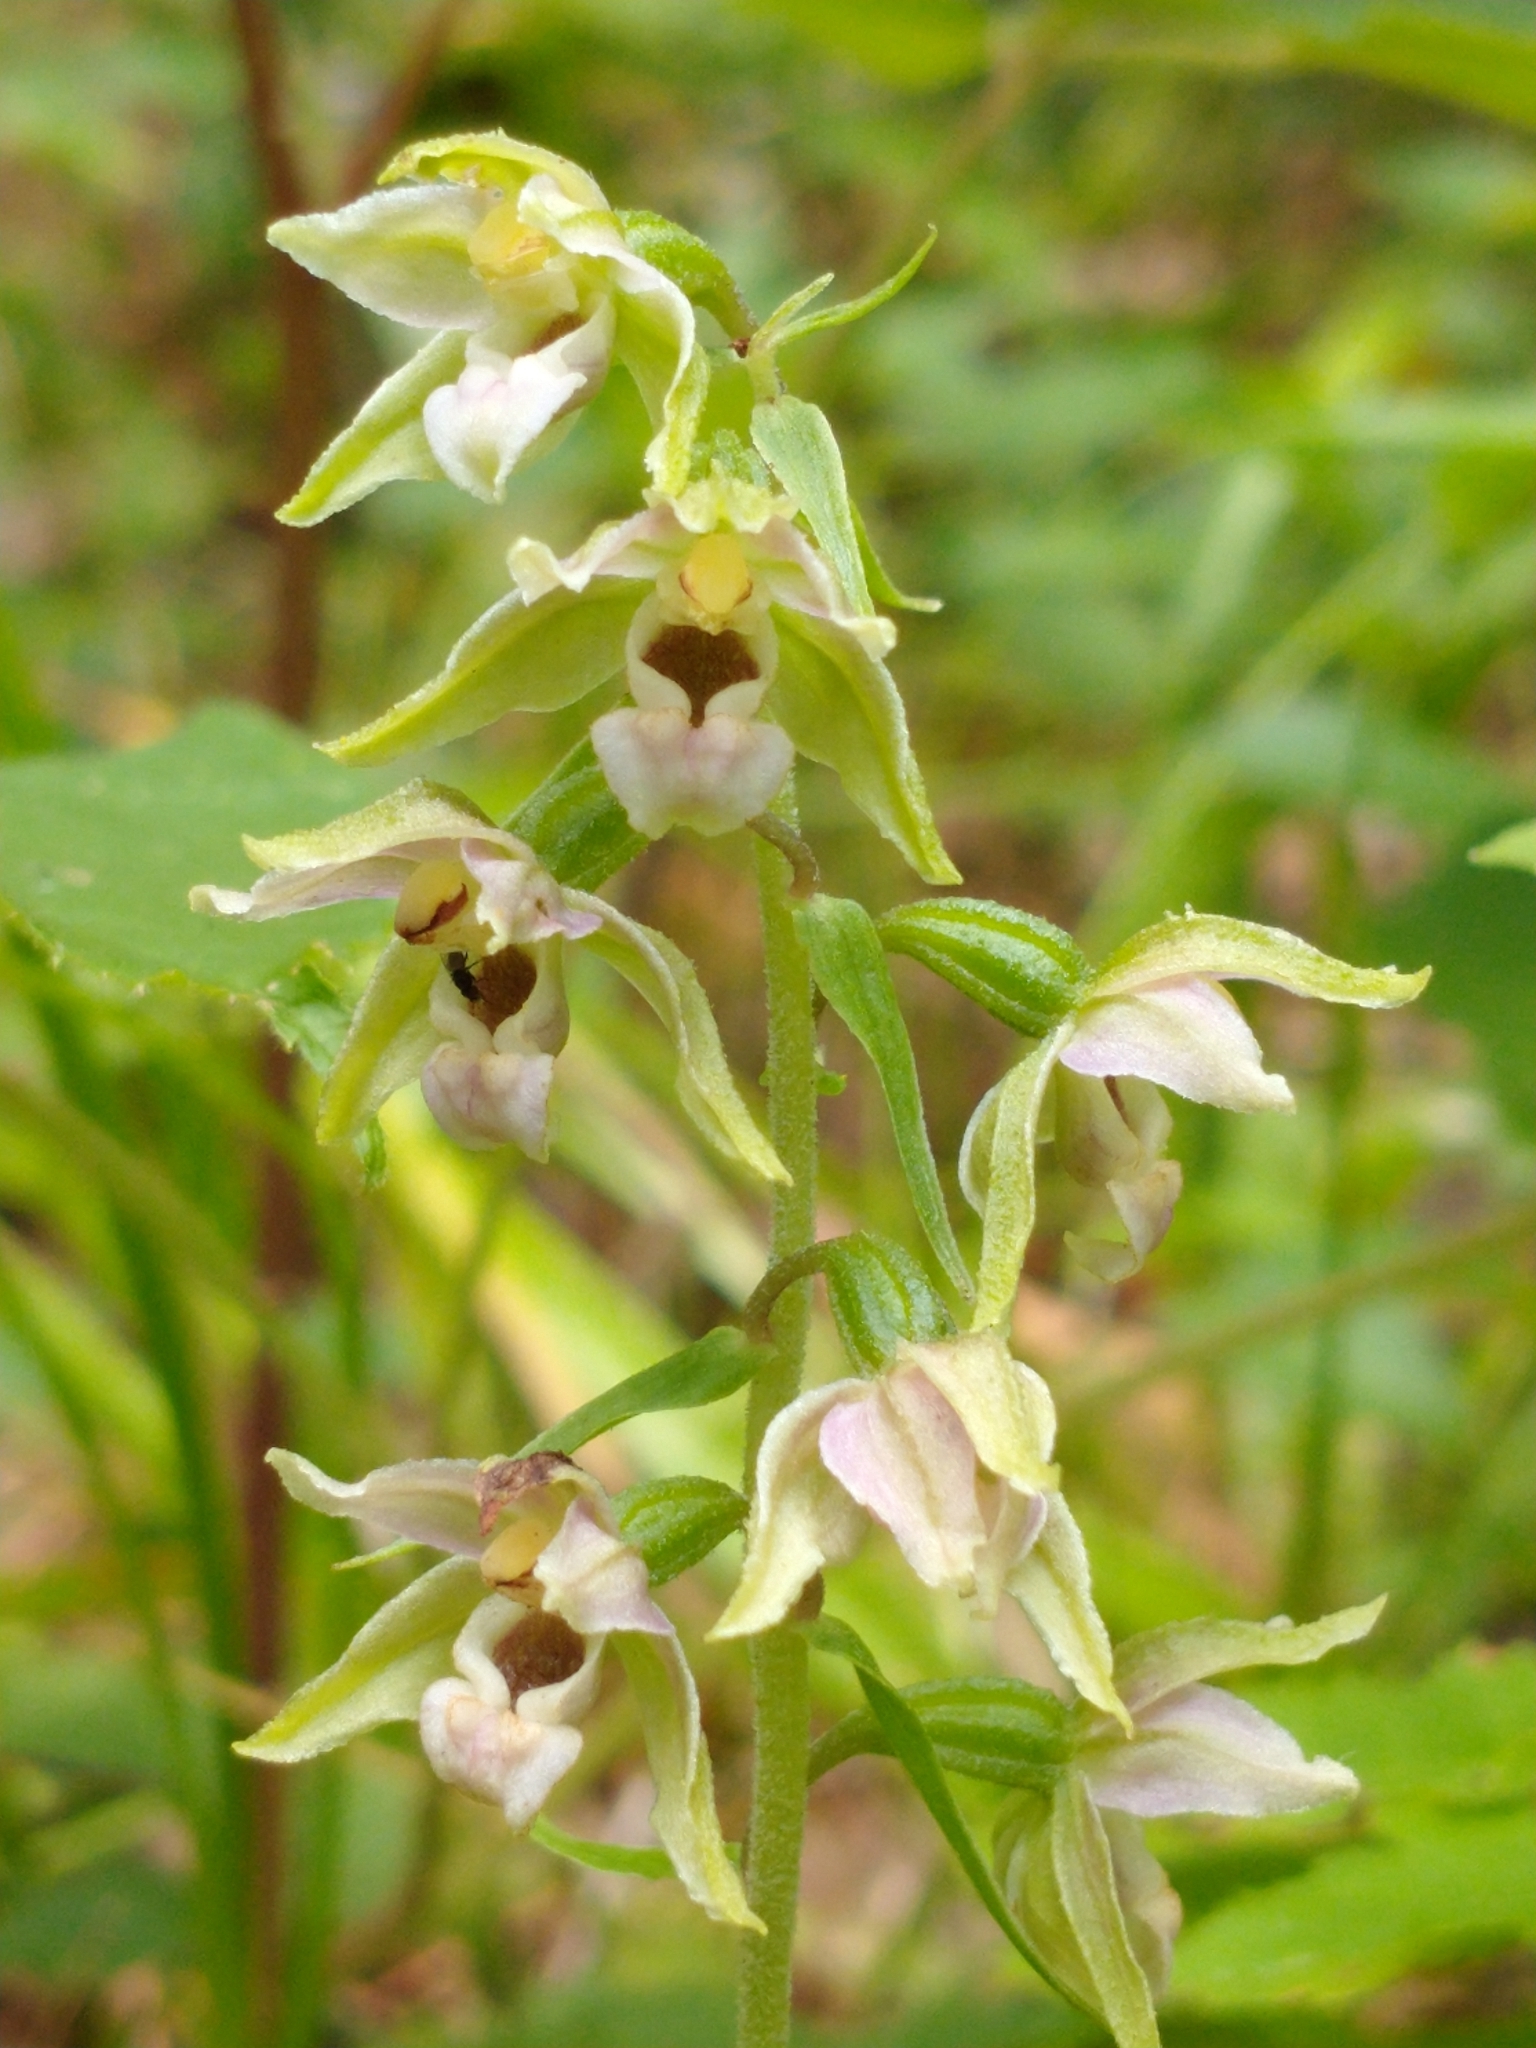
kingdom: Plantae
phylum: Tracheophyta
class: Liliopsida
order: Asparagales
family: Orchidaceae
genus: Epipactis
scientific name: Epipactis helleborine
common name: Broad-leaved helleborine
